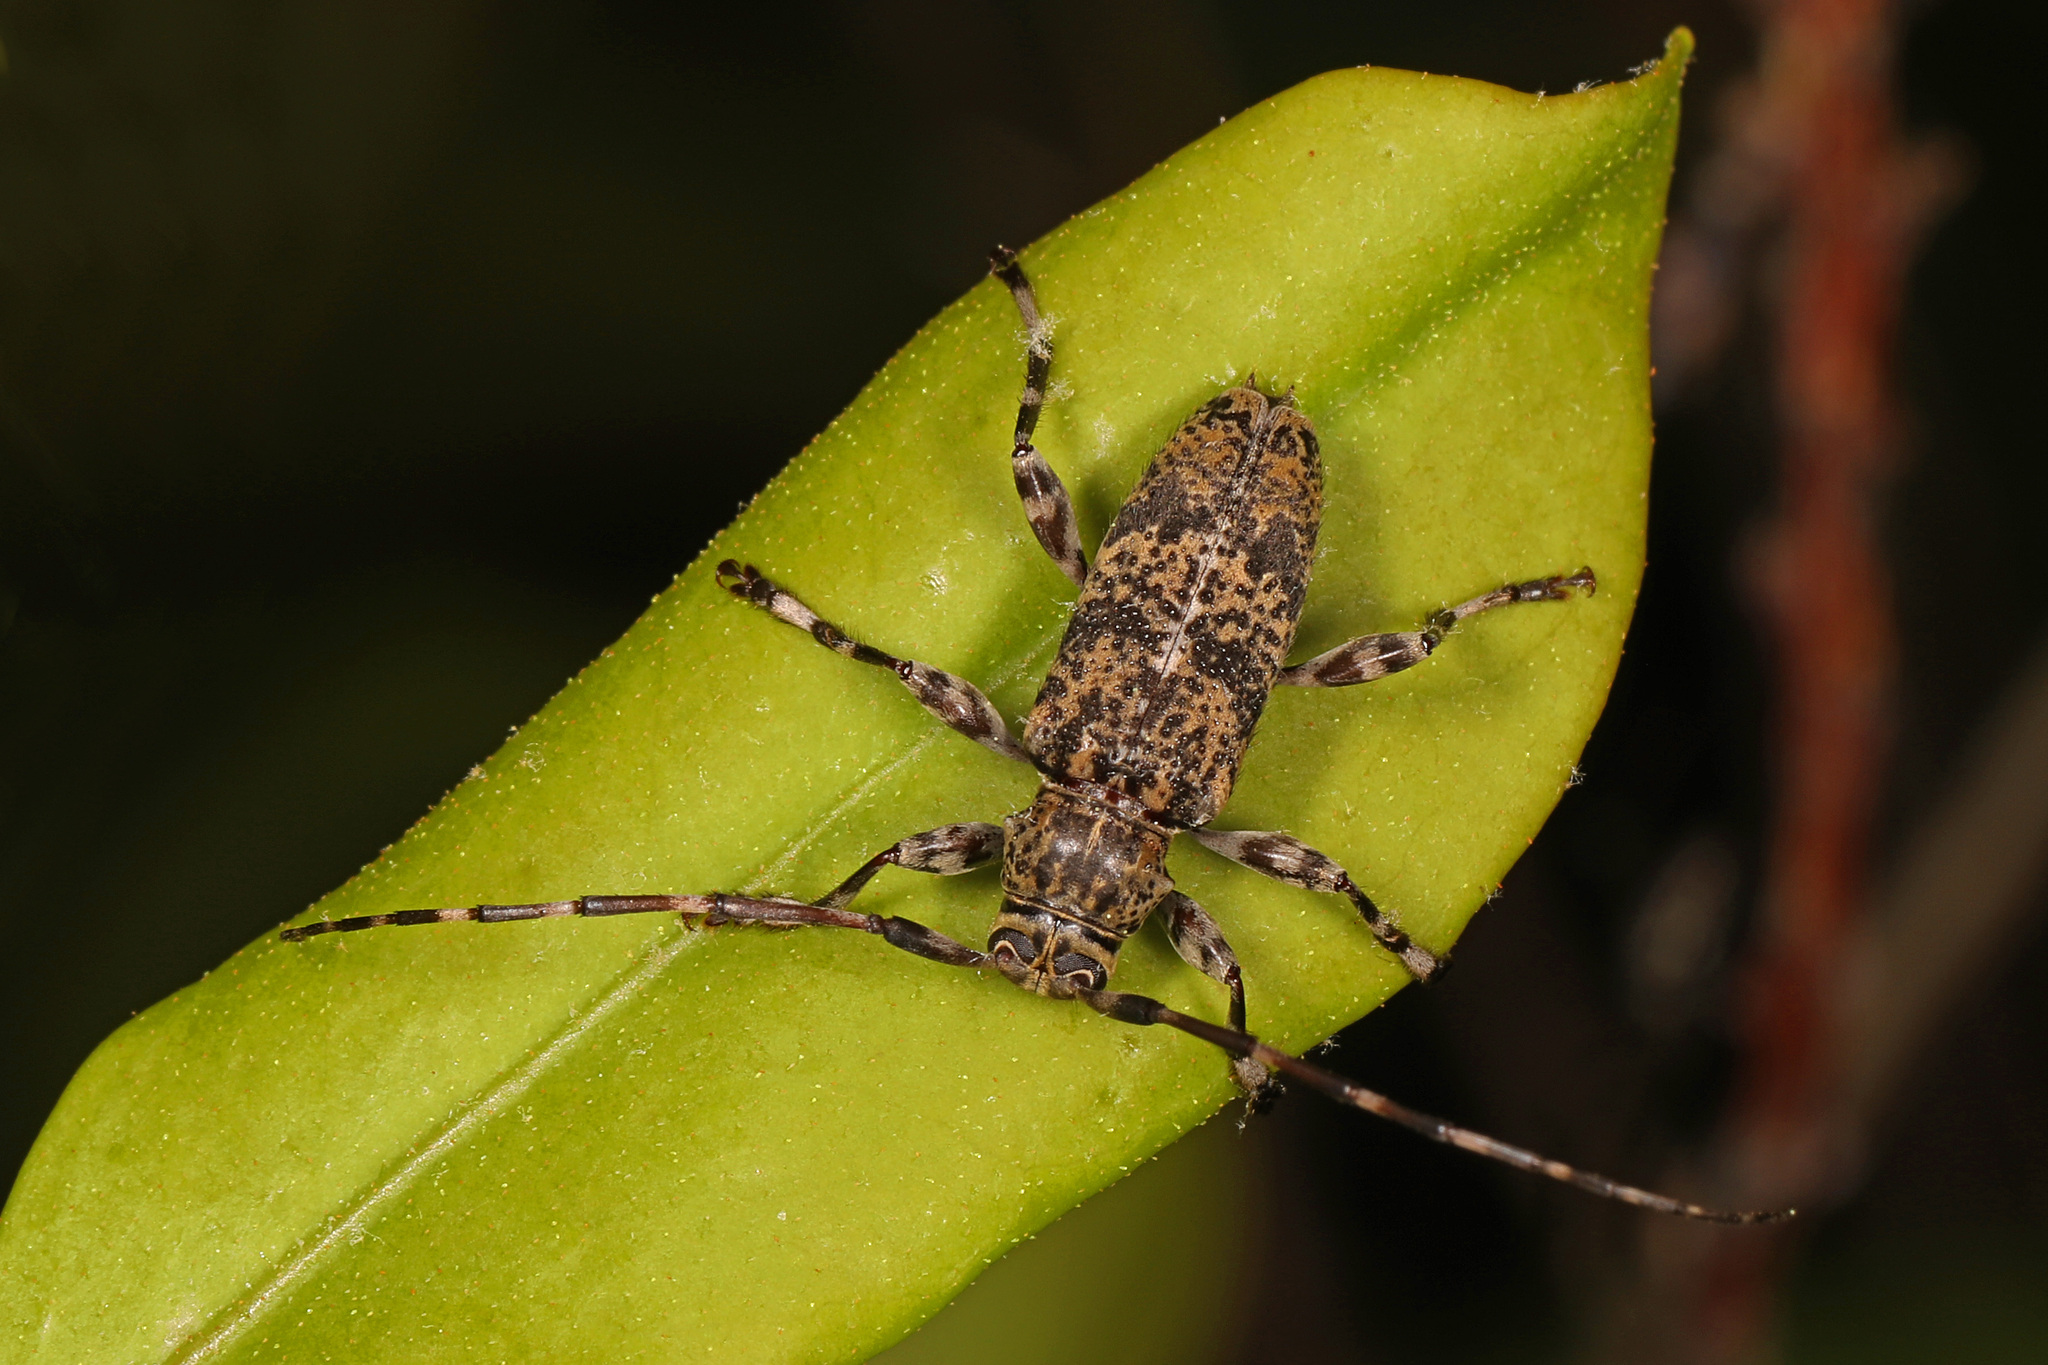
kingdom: Animalia
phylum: Arthropoda
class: Insecta
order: Coleoptera
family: Cerambycidae
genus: Graphisurus
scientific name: Graphisurus fasciatus
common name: Banded graphisurus
